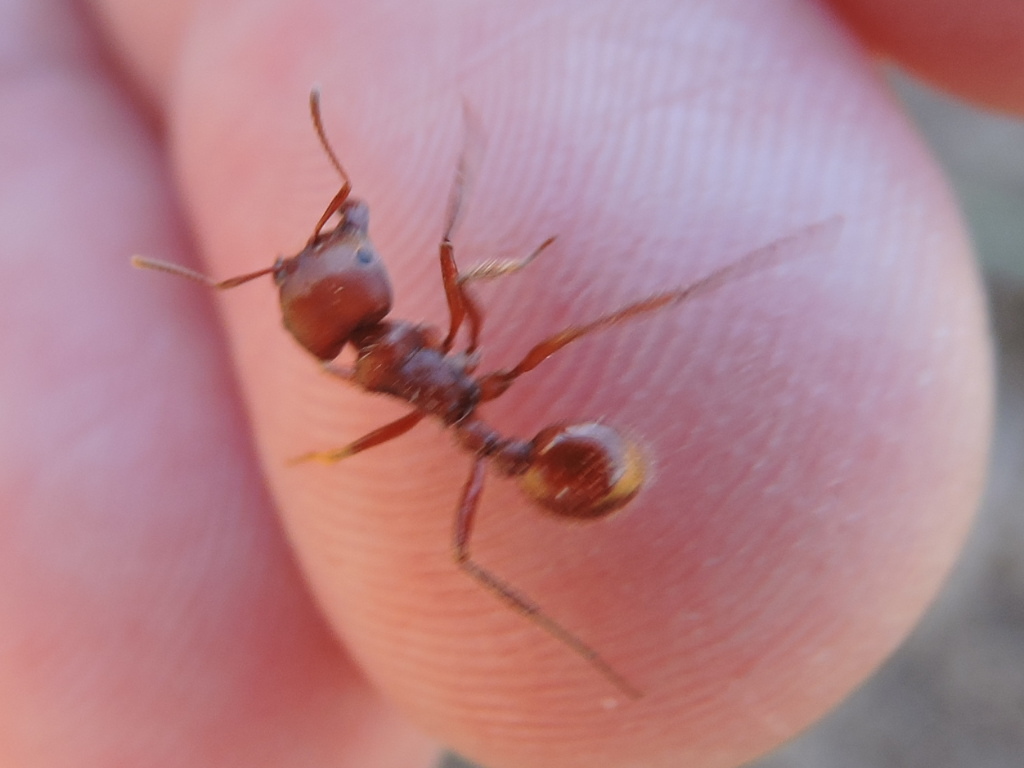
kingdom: Animalia
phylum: Arthropoda
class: Insecta
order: Hymenoptera
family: Formicidae
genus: Pogonomyrmex
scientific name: Pogonomyrmex barbatus
